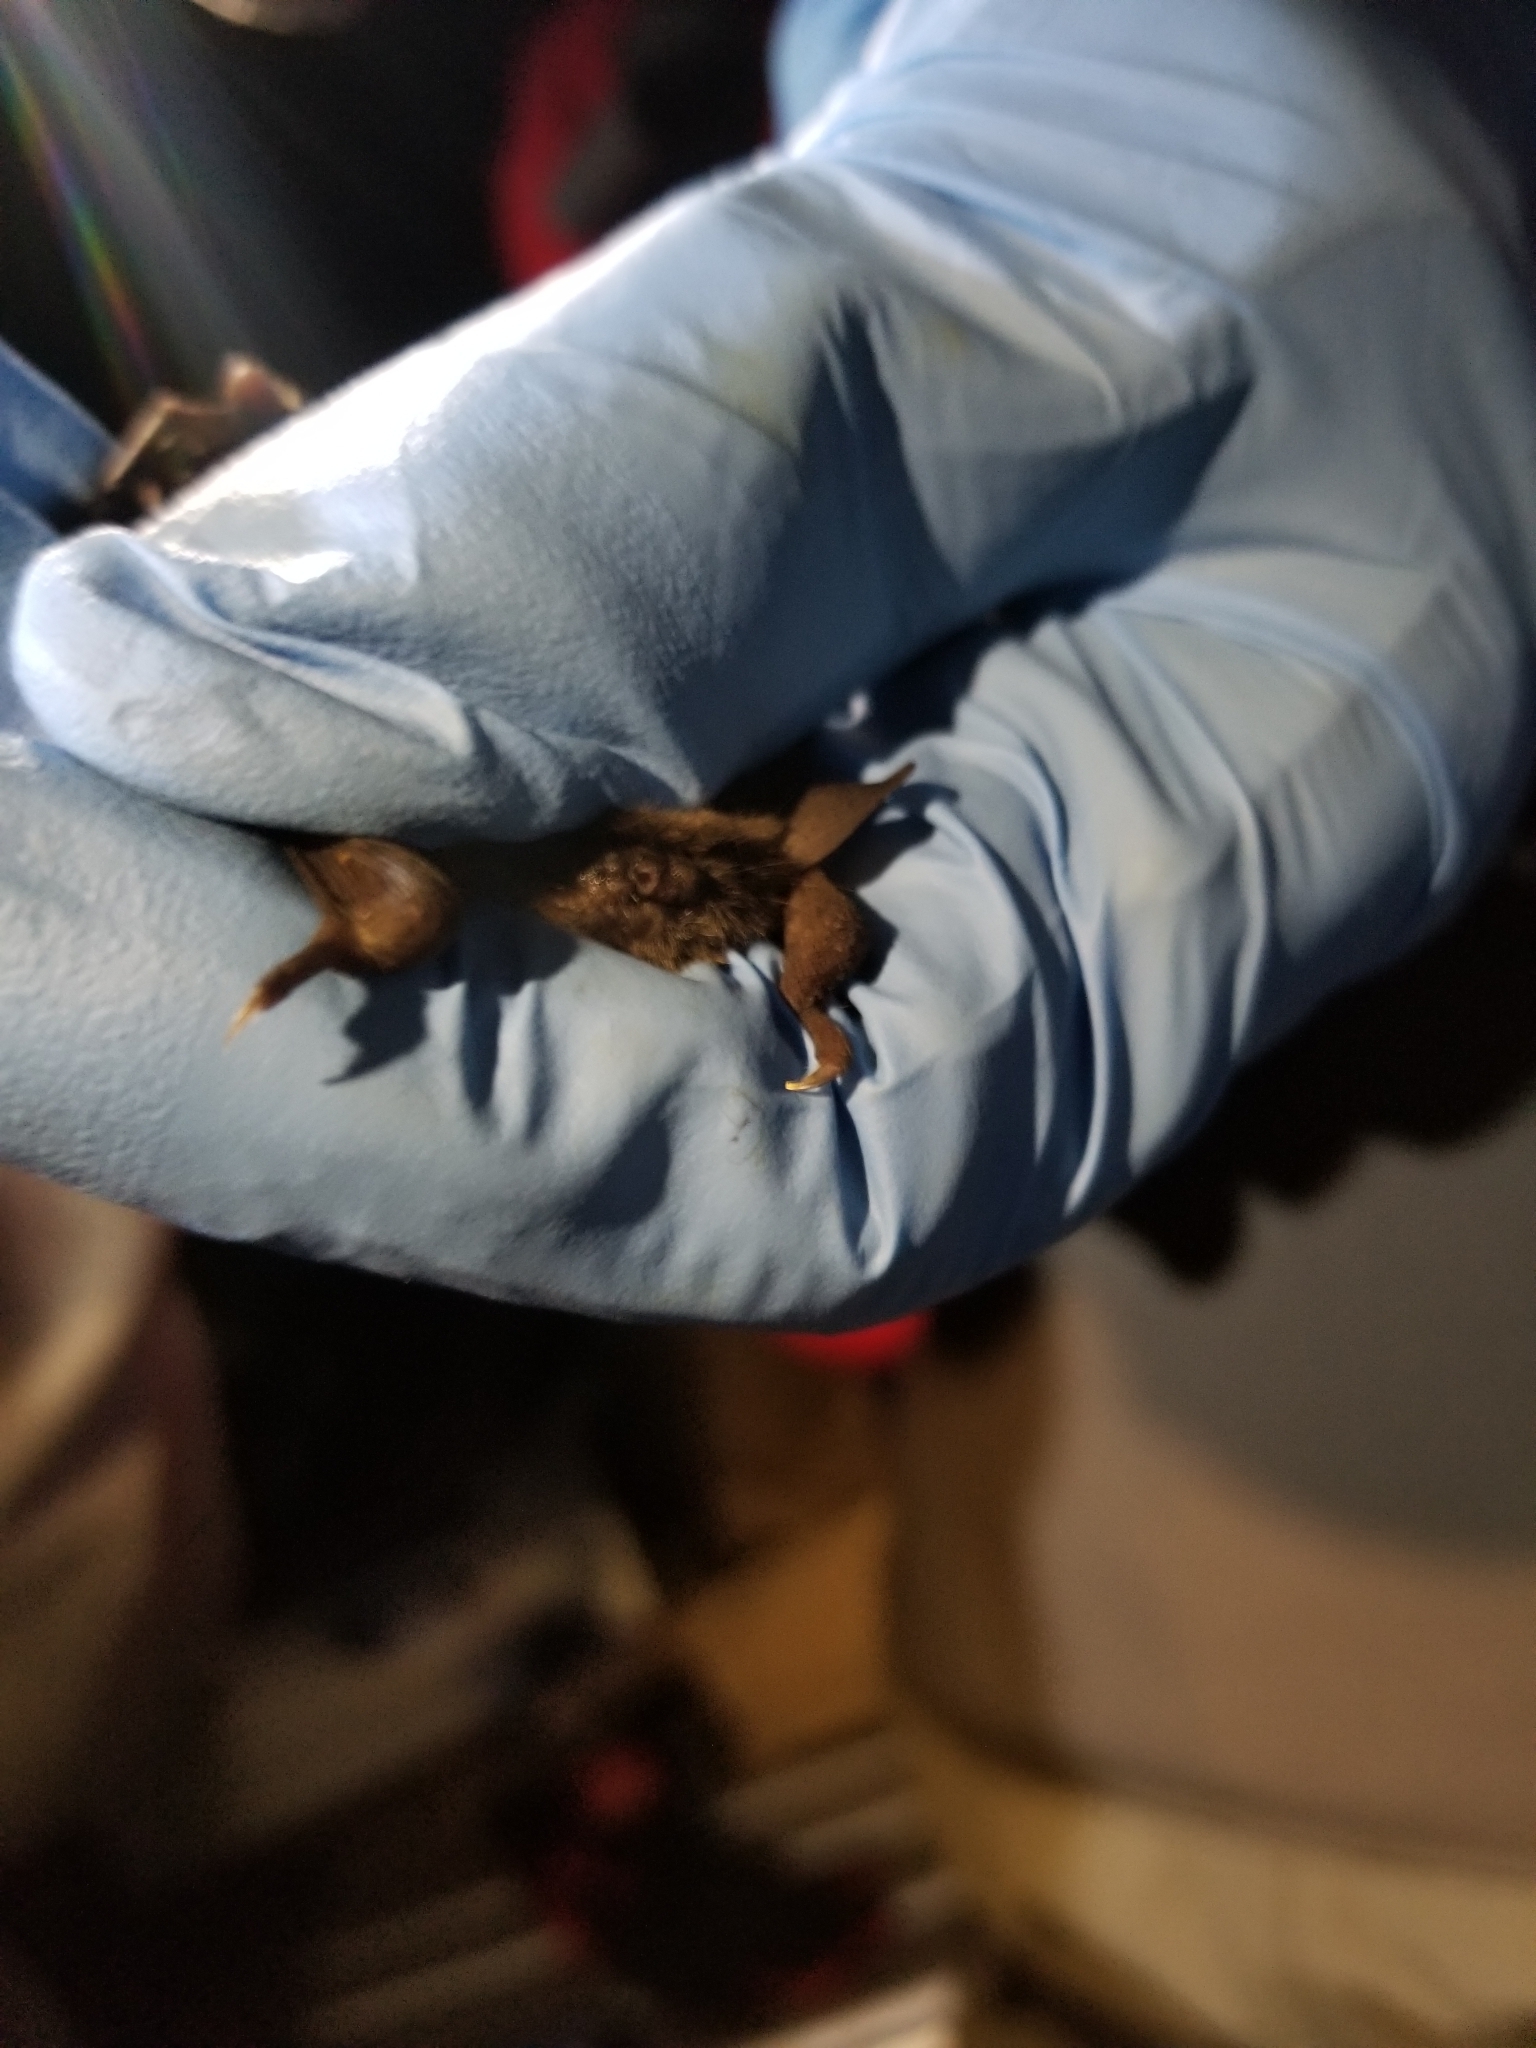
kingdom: Animalia
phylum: Chordata
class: Mammalia
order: Chiroptera
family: Vespertilionidae
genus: Myotis
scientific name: Myotis grisescens
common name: Gray myotis
